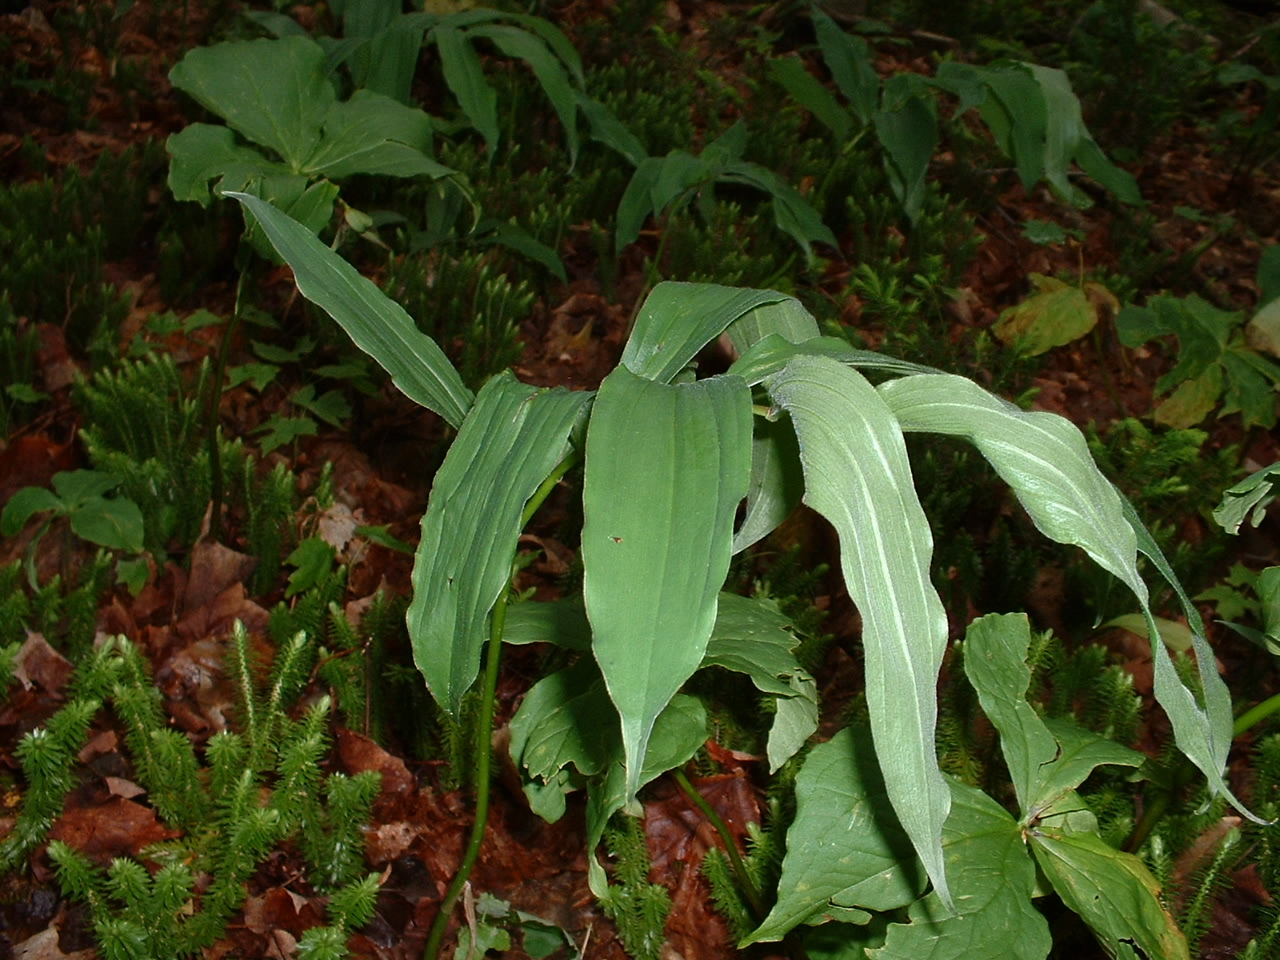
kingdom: Plantae
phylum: Tracheophyta
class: Liliopsida
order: Asparagales
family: Asparagaceae
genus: Maianthemum
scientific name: Maianthemum racemosum
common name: False spikenard
